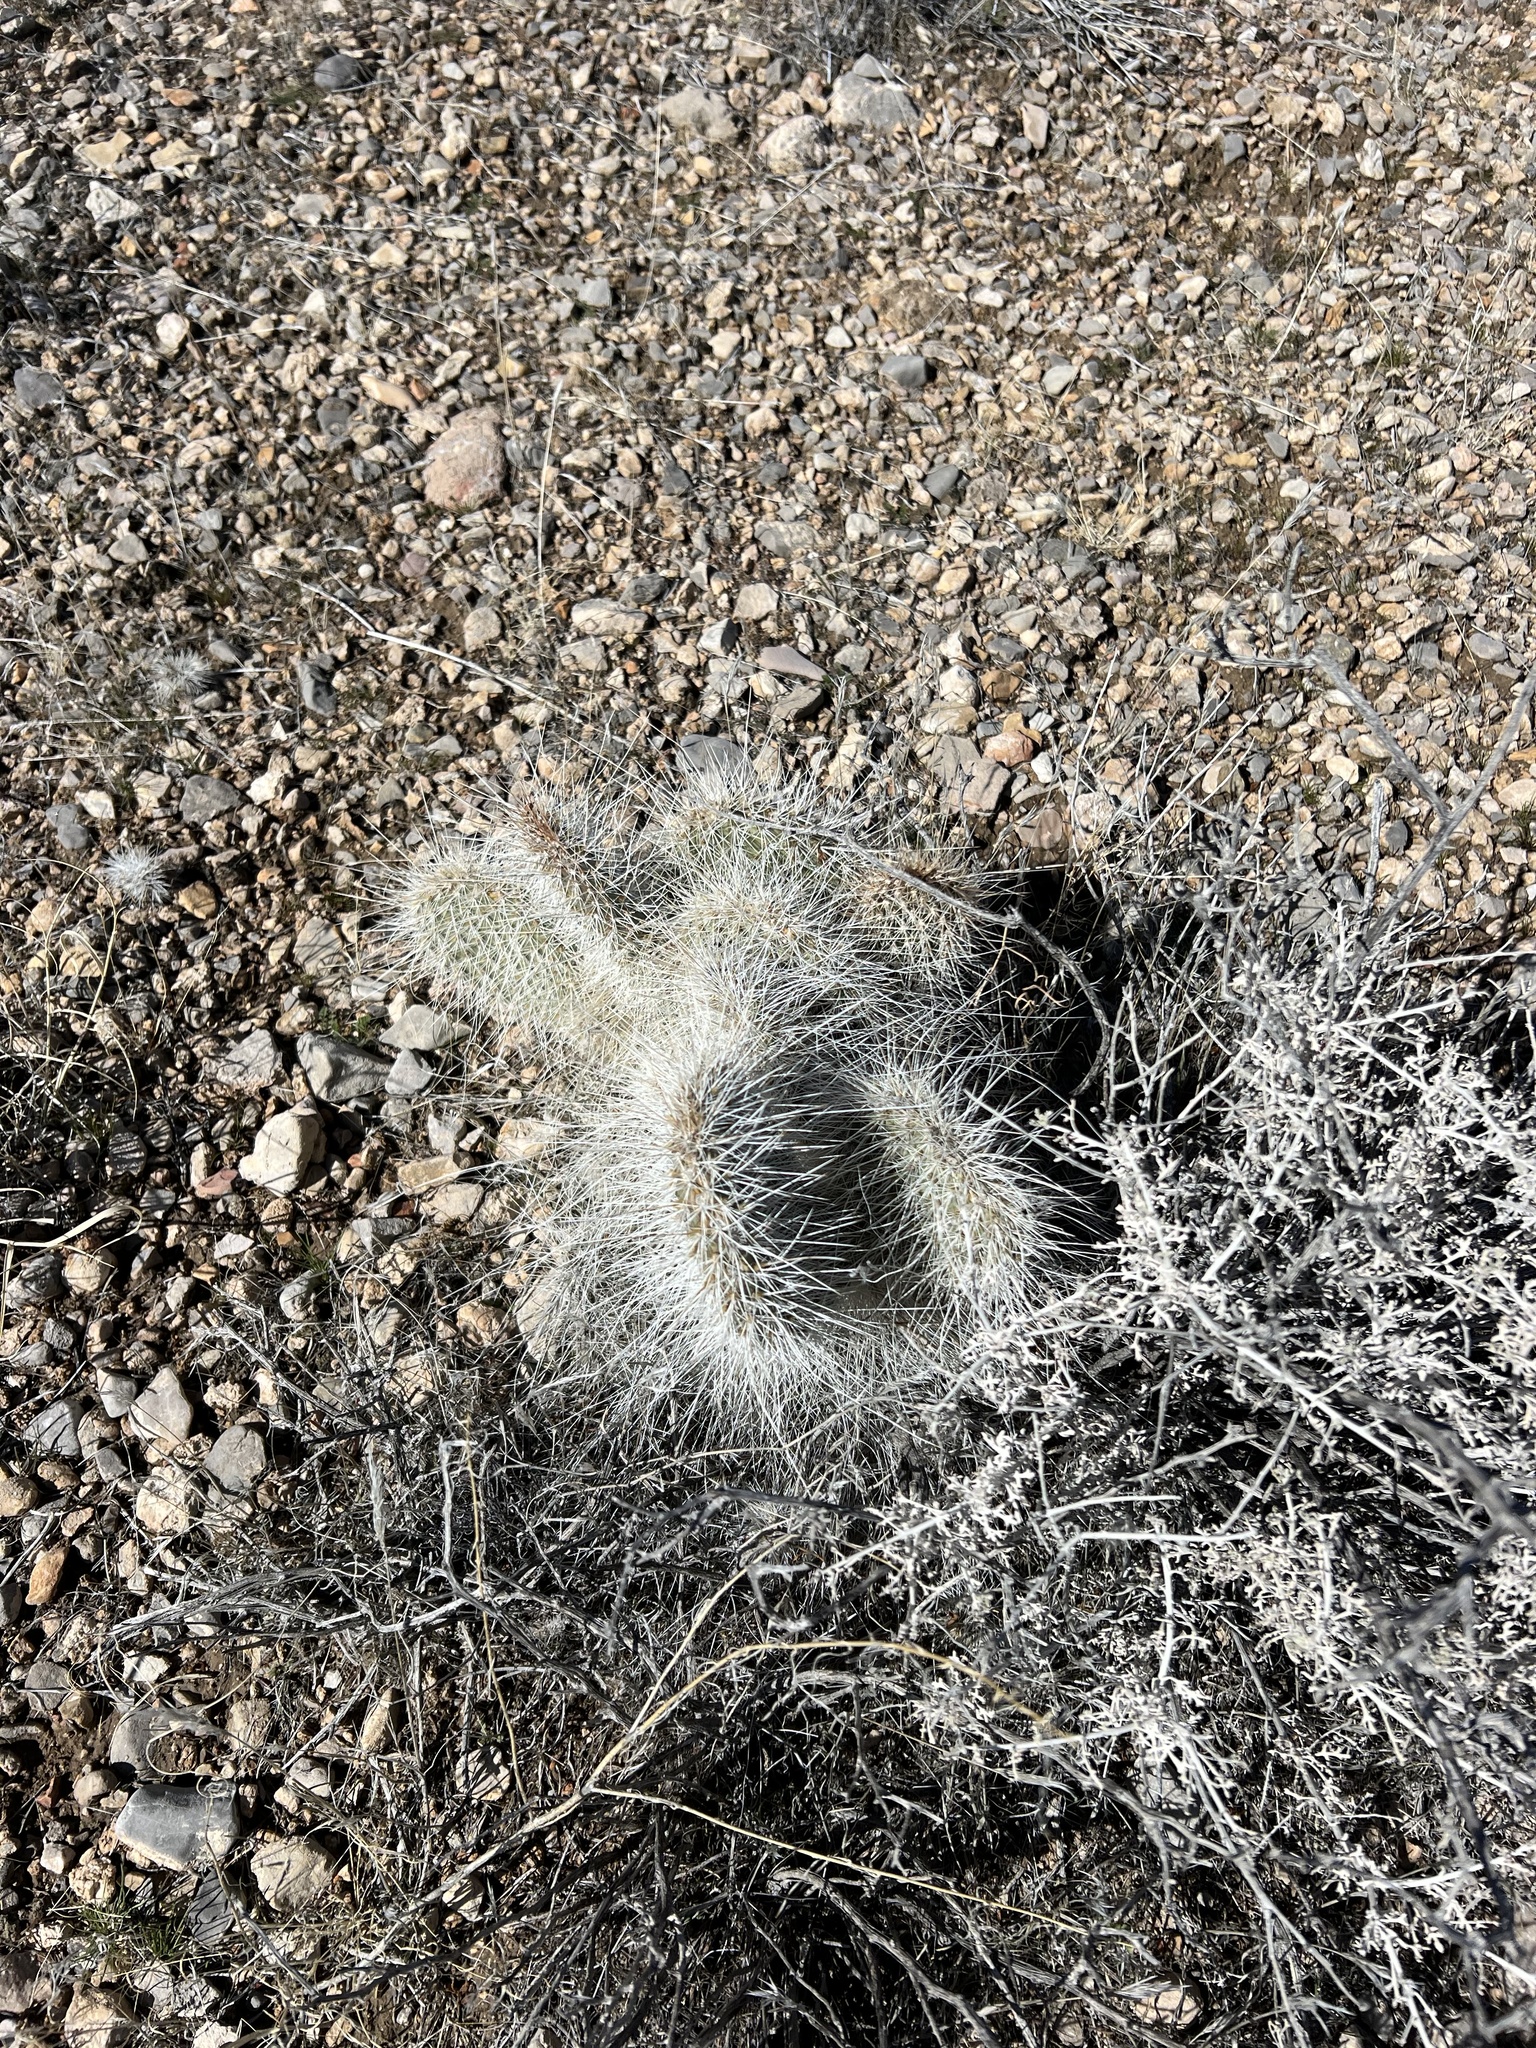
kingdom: Plantae
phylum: Tracheophyta
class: Magnoliopsida
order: Caryophyllales
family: Cactaceae
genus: Opuntia
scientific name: Opuntia polyacantha
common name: Plains prickly-pear
